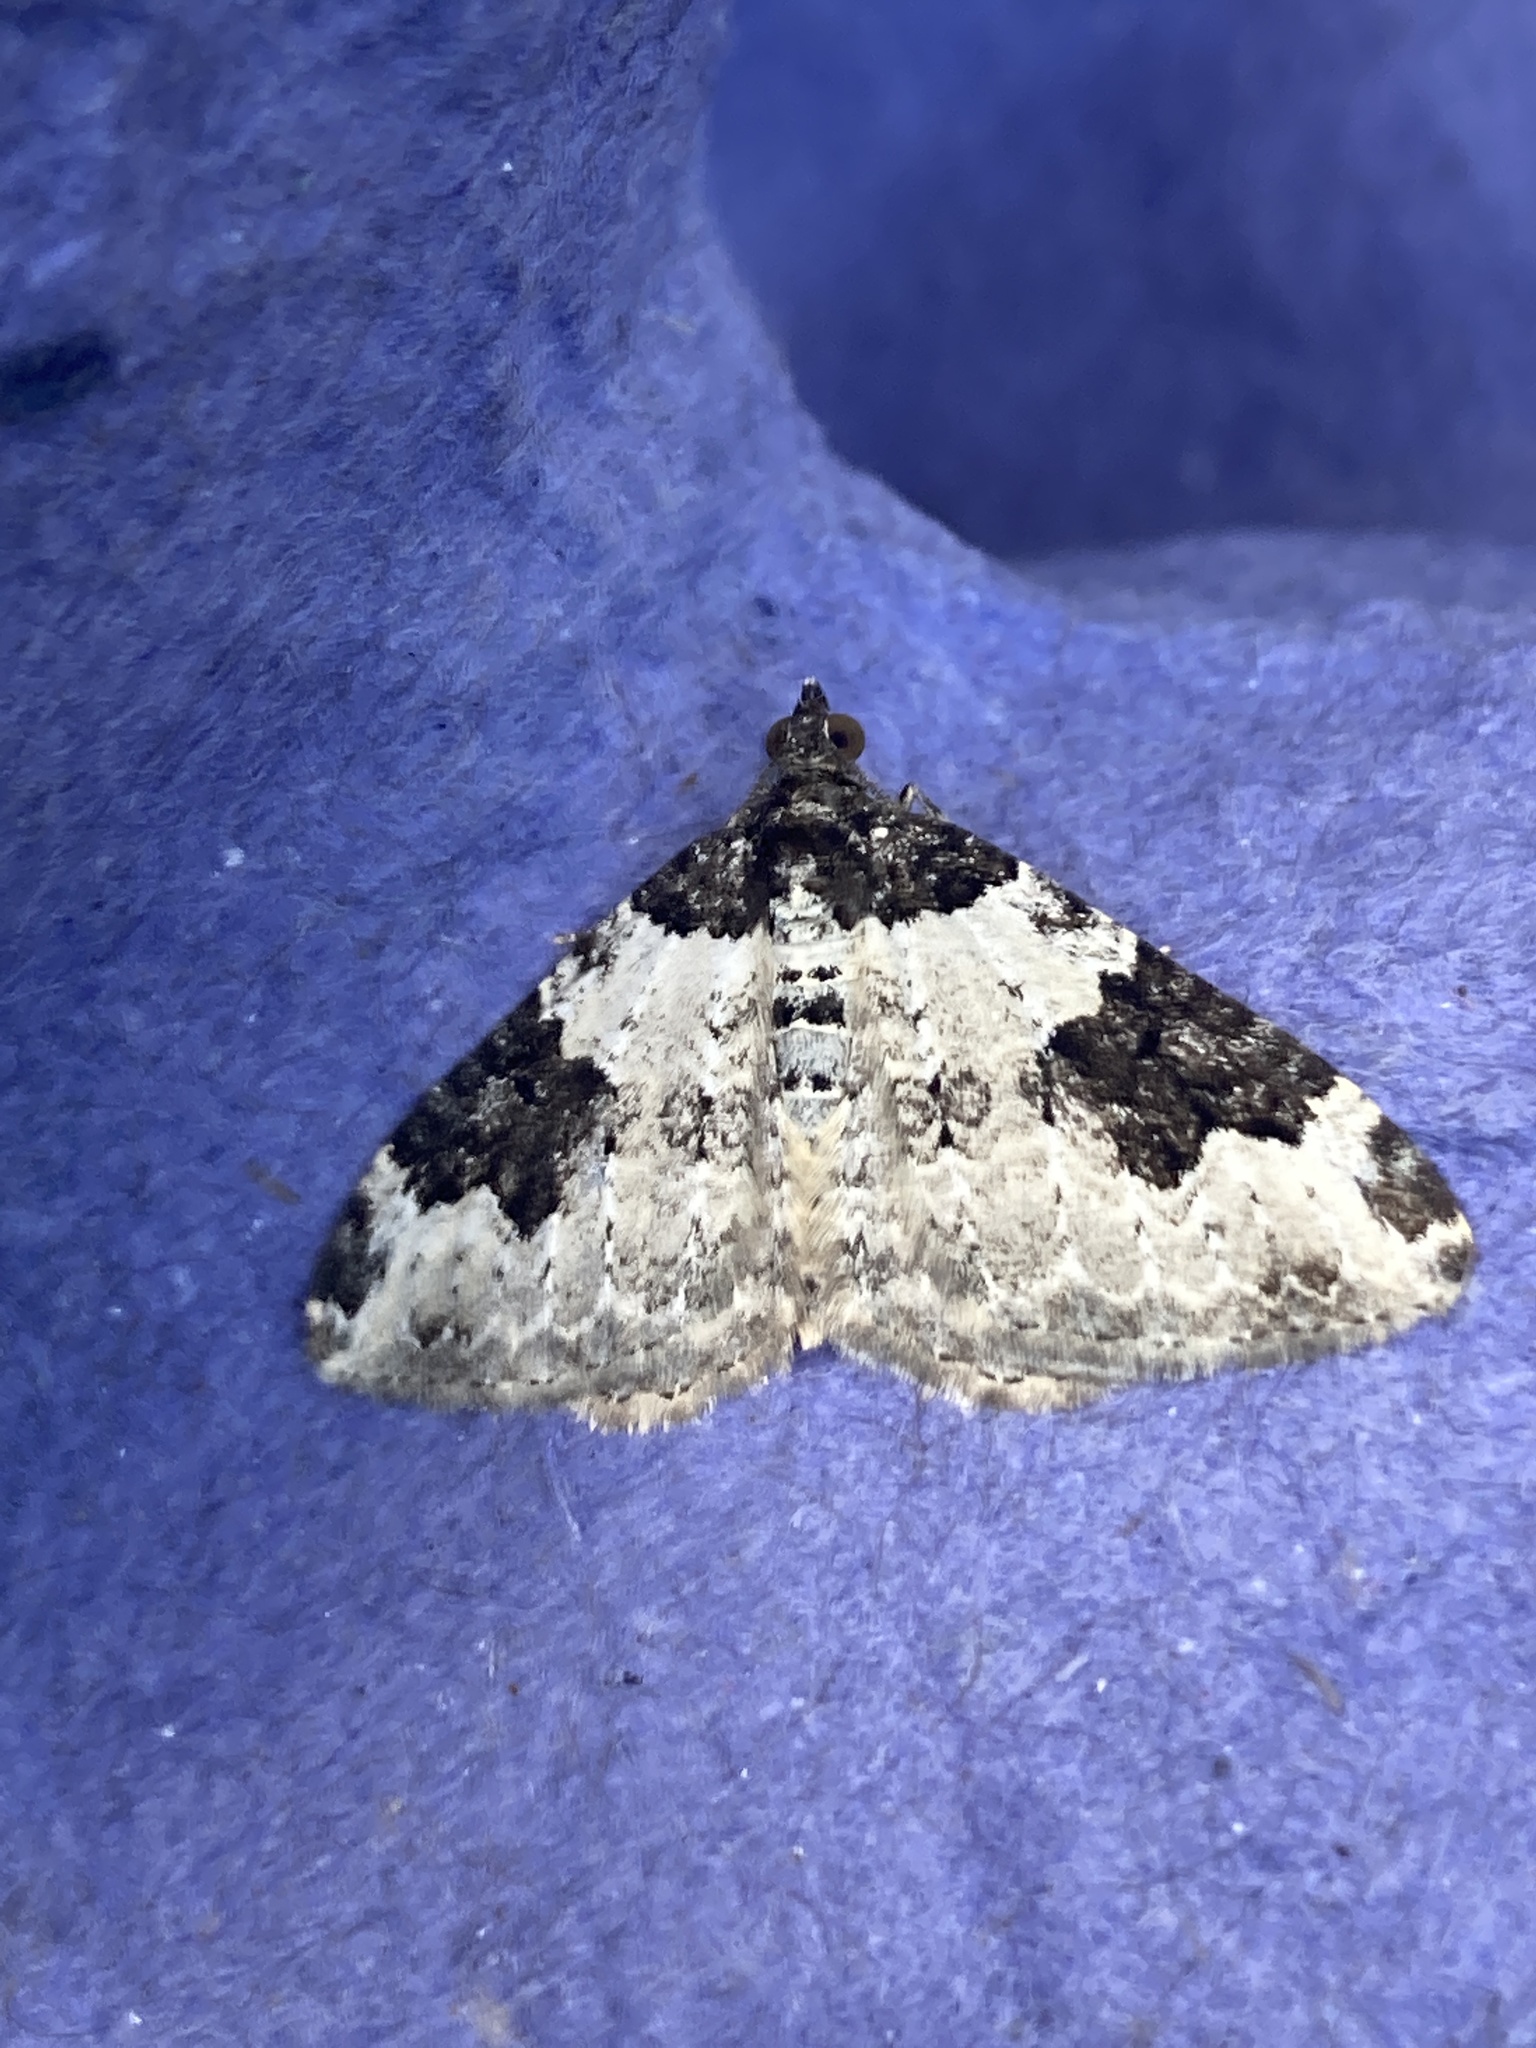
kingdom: Animalia
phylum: Arthropoda
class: Insecta
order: Lepidoptera
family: Geometridae
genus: Xanthorhoe
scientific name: Xanthorhoe fluctuata
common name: Garden carpet
